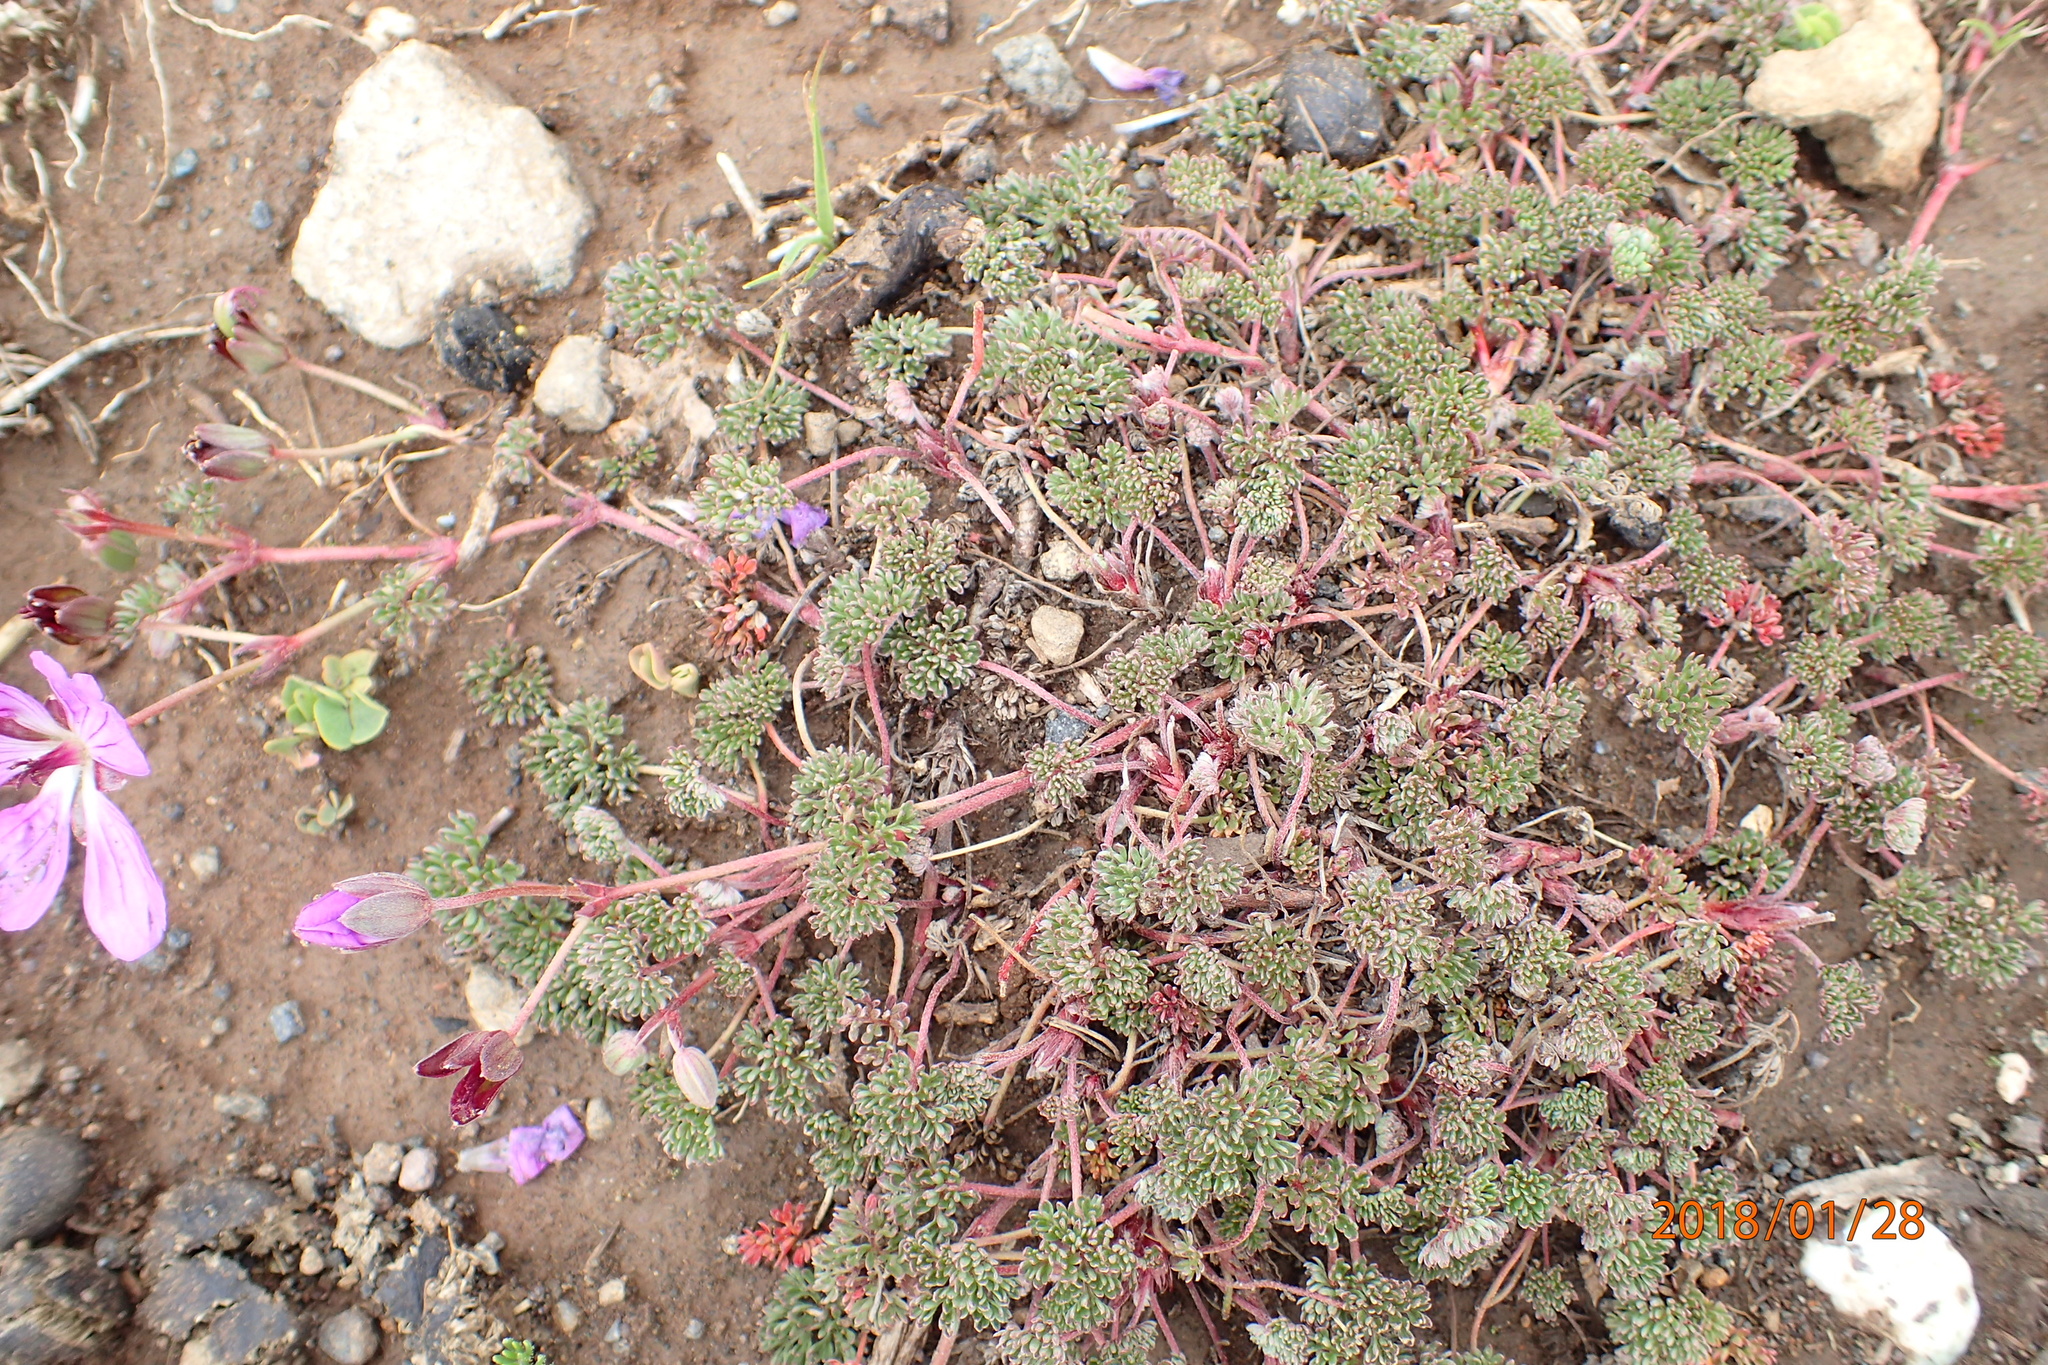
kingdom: Plantae
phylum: Tracheophyta
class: Magnoliopsida
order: Geraniales
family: Geraniaceae
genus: Geranium
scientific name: Geranium multisectum
